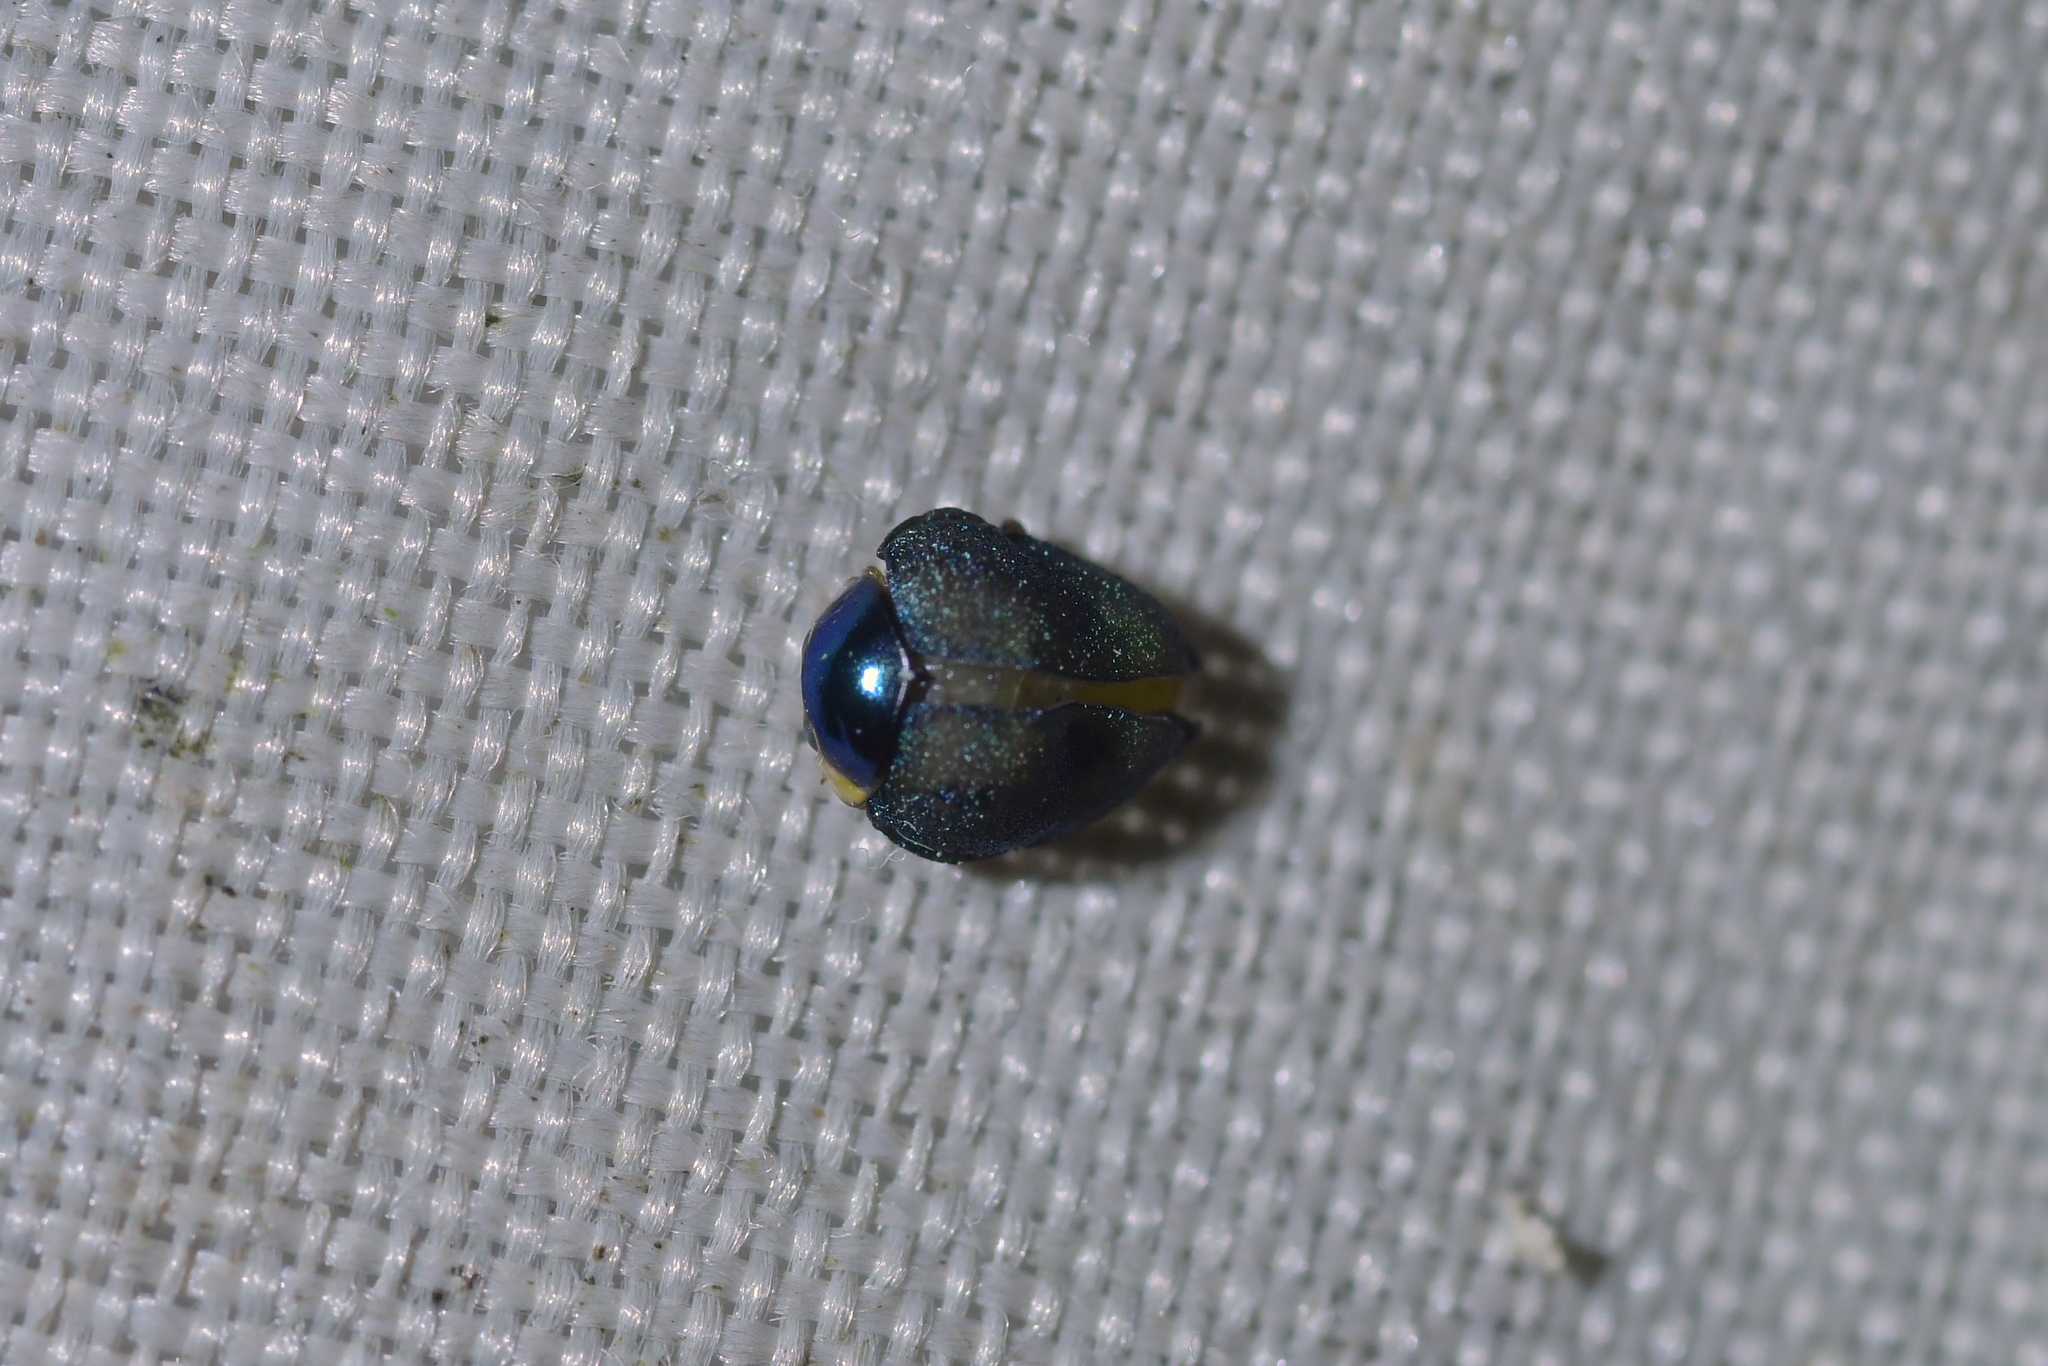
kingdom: Animalia
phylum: Arthropoda
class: Insecta
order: Coleoptera
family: Coccinellidae
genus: Halmus
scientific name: Halmus chalybeus
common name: Steel blue ladybird beetle
